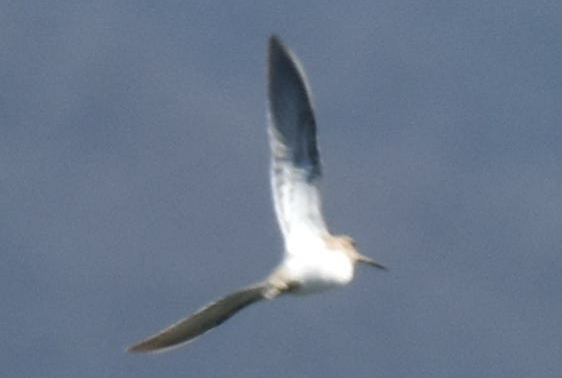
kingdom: Animalia
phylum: Chordata
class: Aves
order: Charadriiformes
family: Scolopacidae
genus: Gallinago
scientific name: Gallinago gallinago
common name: Common snipe
